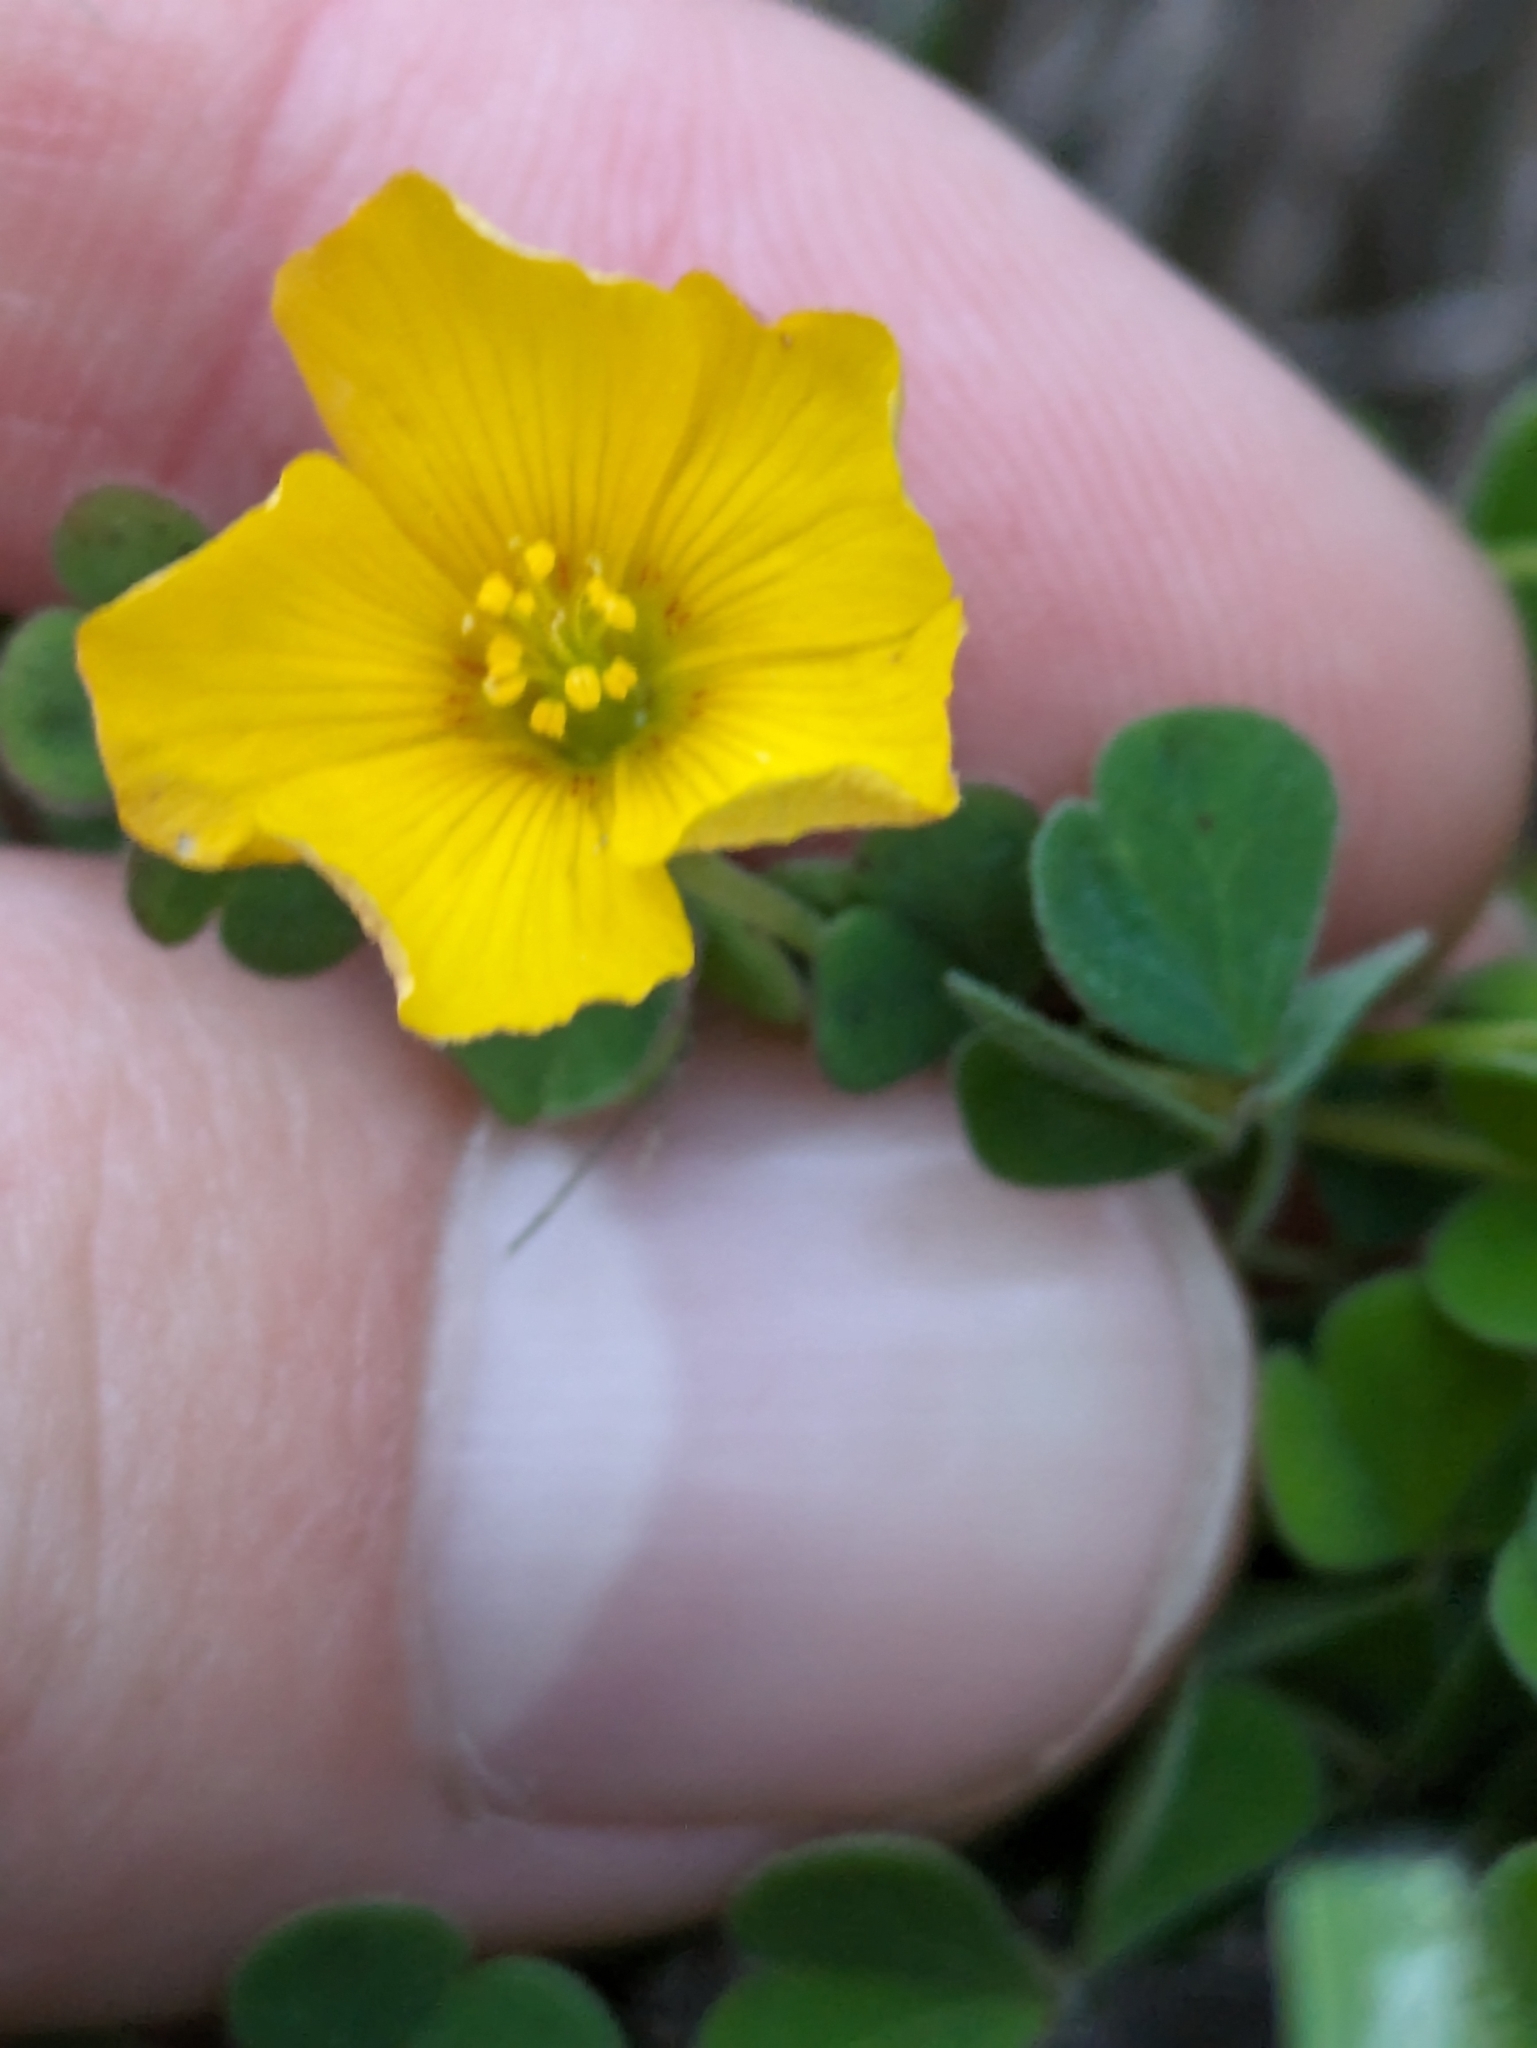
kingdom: Plantae
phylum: Tracheophyta
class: Magnoliopsida
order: Oxalidales
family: Oxalidaceae
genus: Oxalis
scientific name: Oxalis californica
